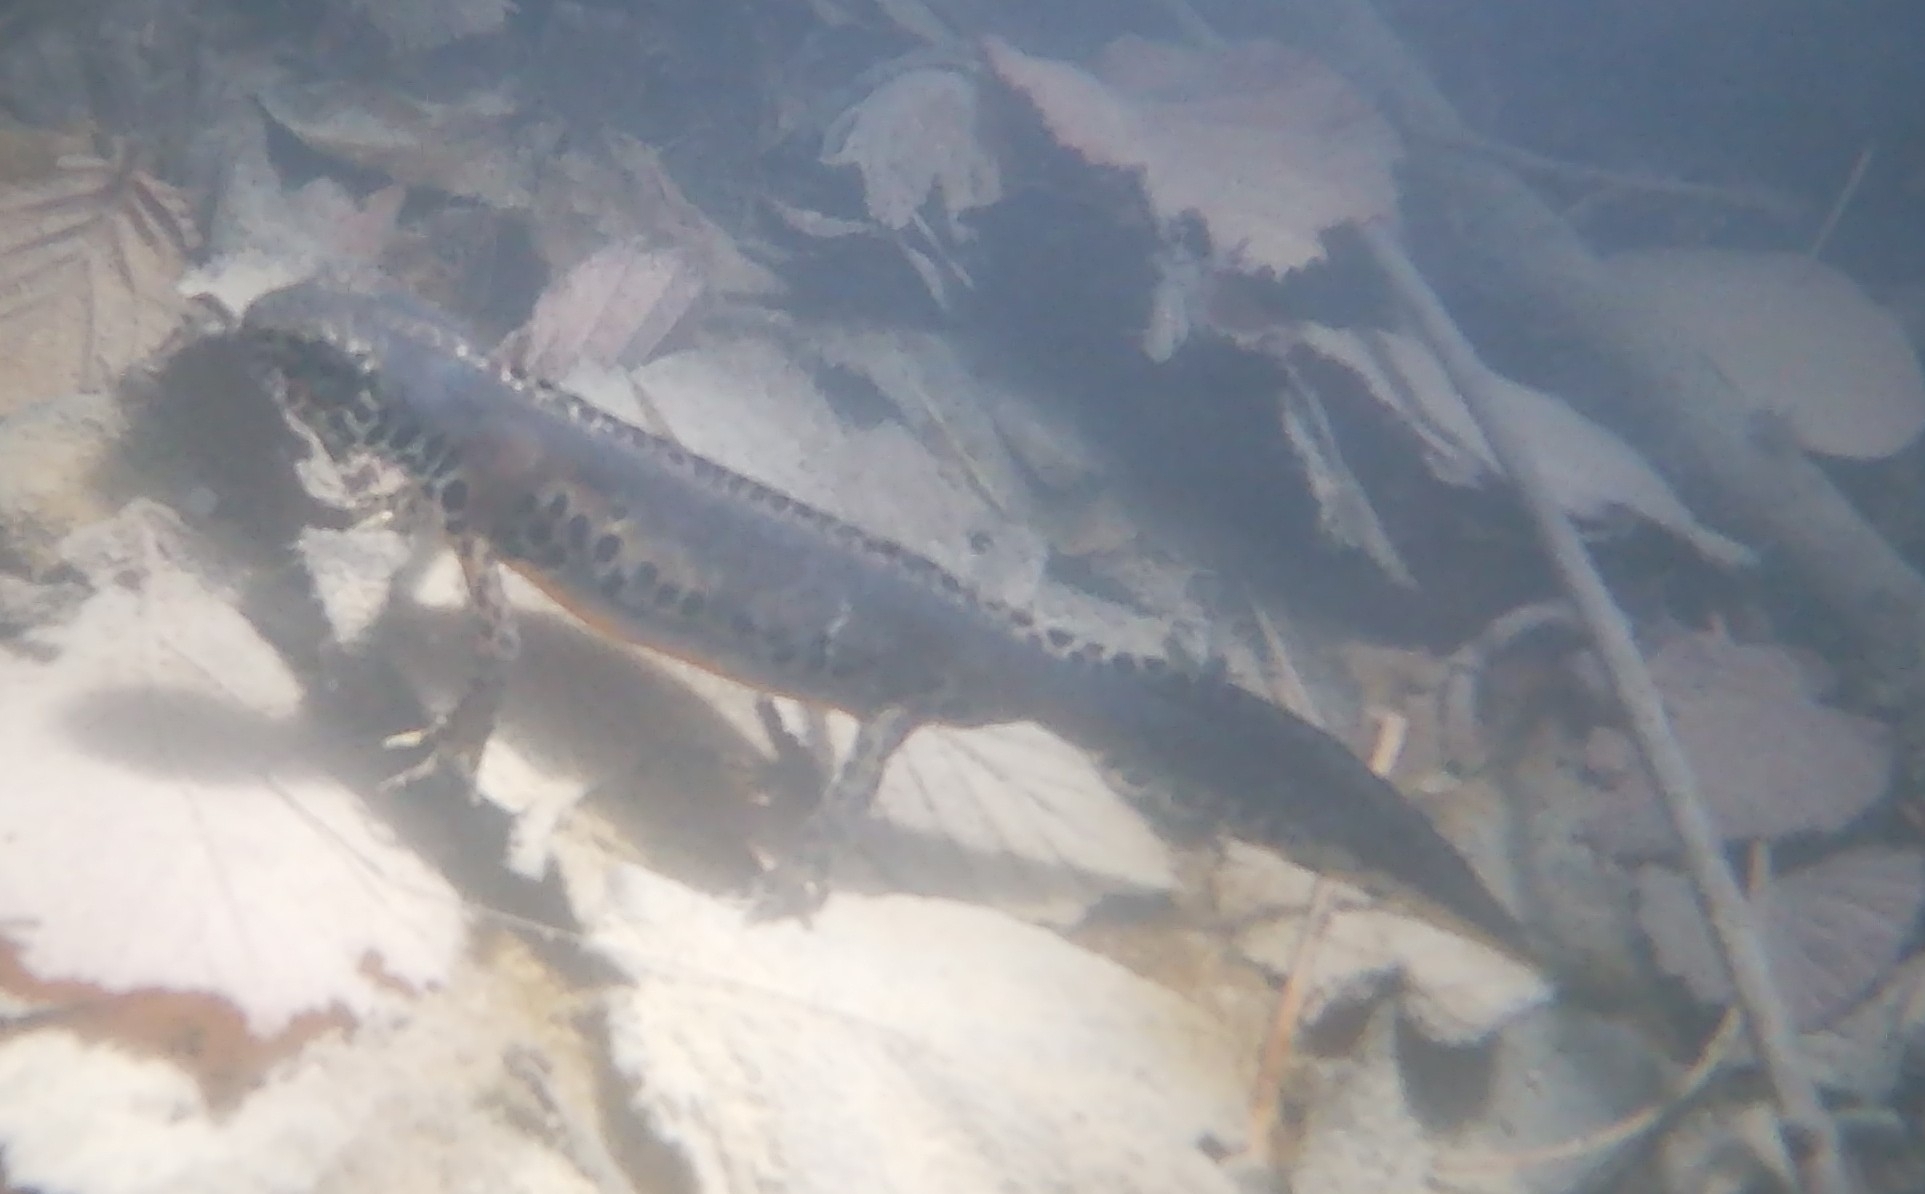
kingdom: Animalia
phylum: Chordata
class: Amphibia
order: Caudata
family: Salamandridae
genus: Ichthyosaura
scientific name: Ichthyosaura alpestris
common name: Alpine newt
